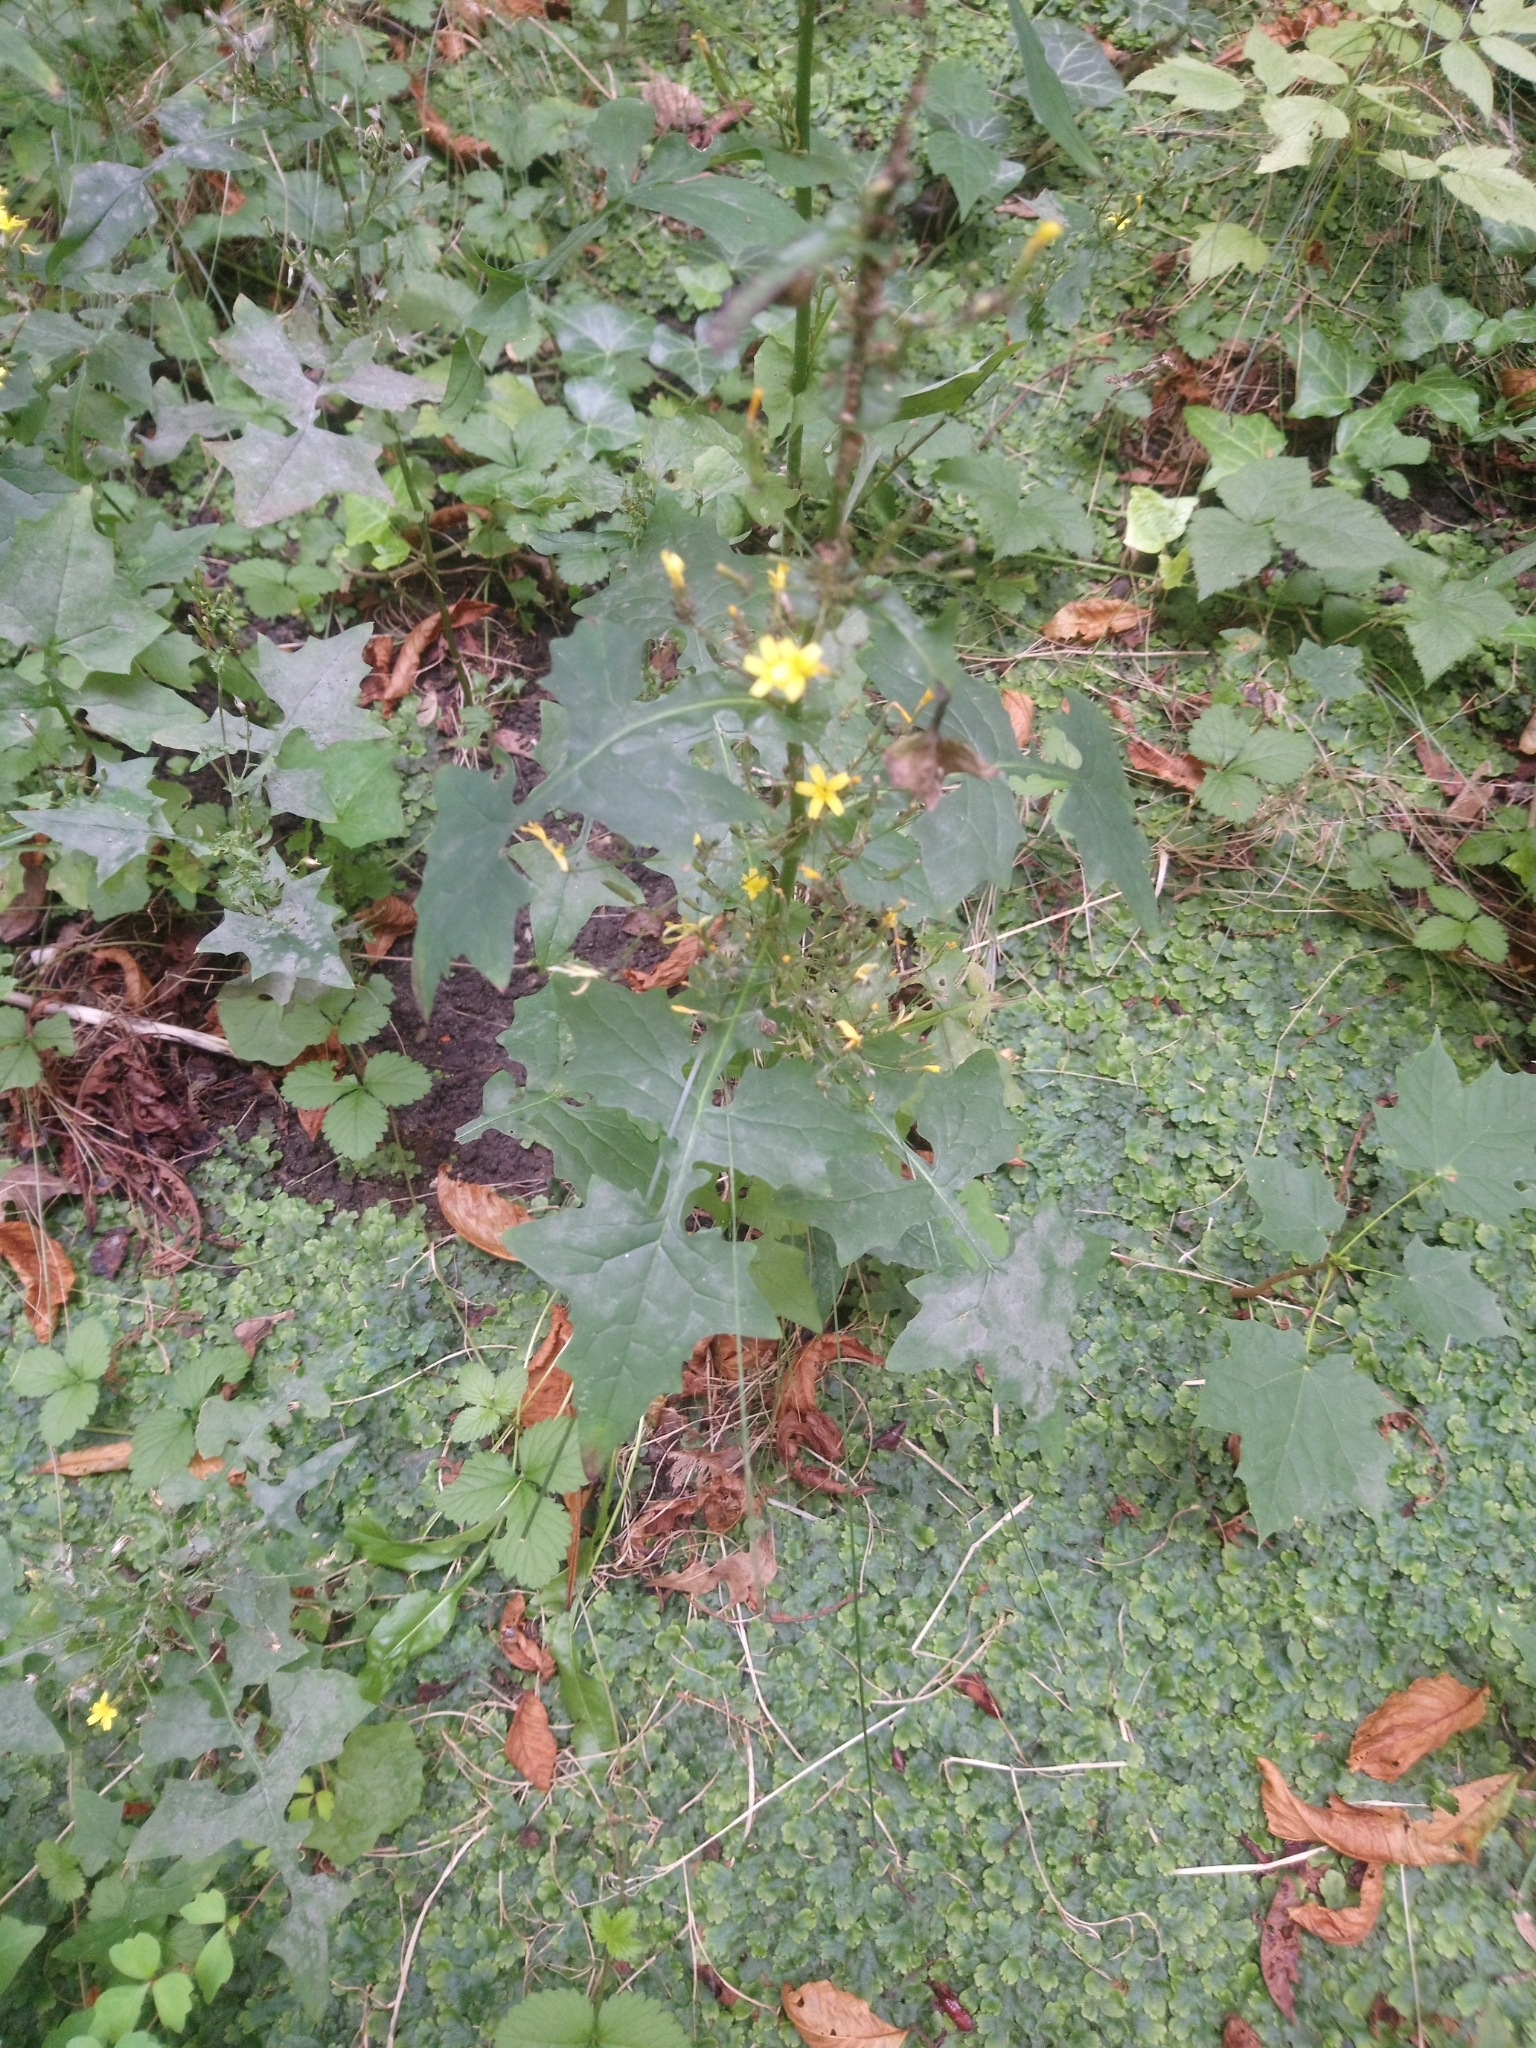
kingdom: Plantae
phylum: Tracheophyta
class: Magnoliopsida
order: Asterales
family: Asteraceae
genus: Mycelis
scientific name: Mycelis muralis
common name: Wall lettuce
